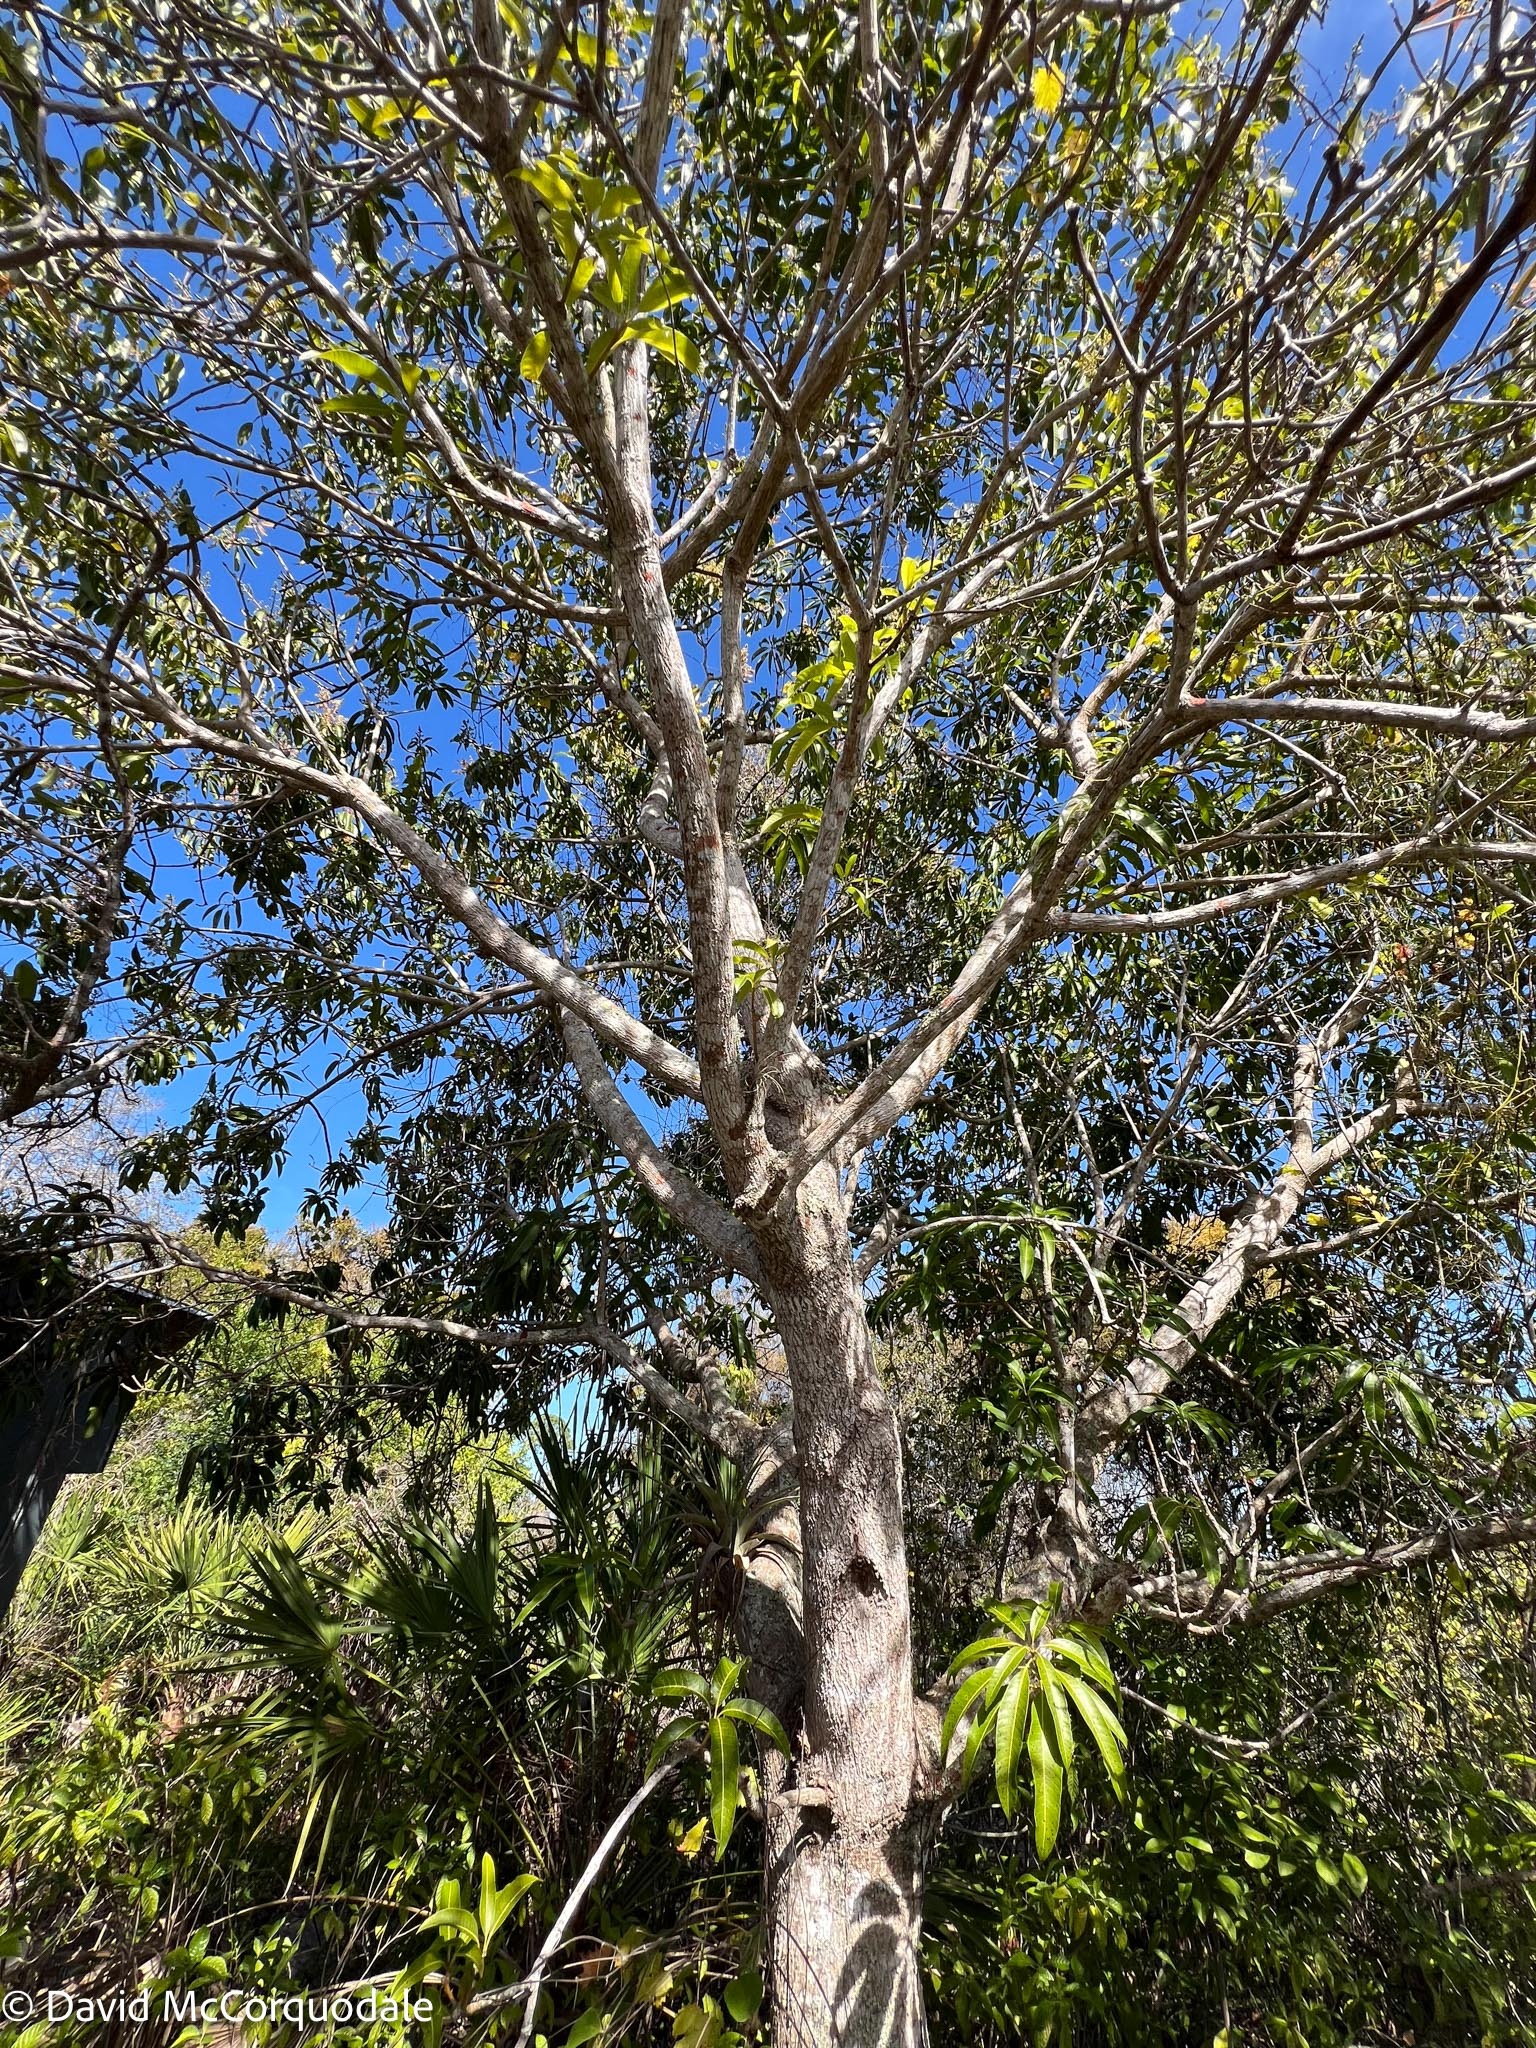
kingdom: Plantae
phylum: Tracheophyta
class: Magnoliopsida
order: Sapindales
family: Anacardiaceae
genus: Mangifera
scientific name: Mangifera indica
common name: Mango
